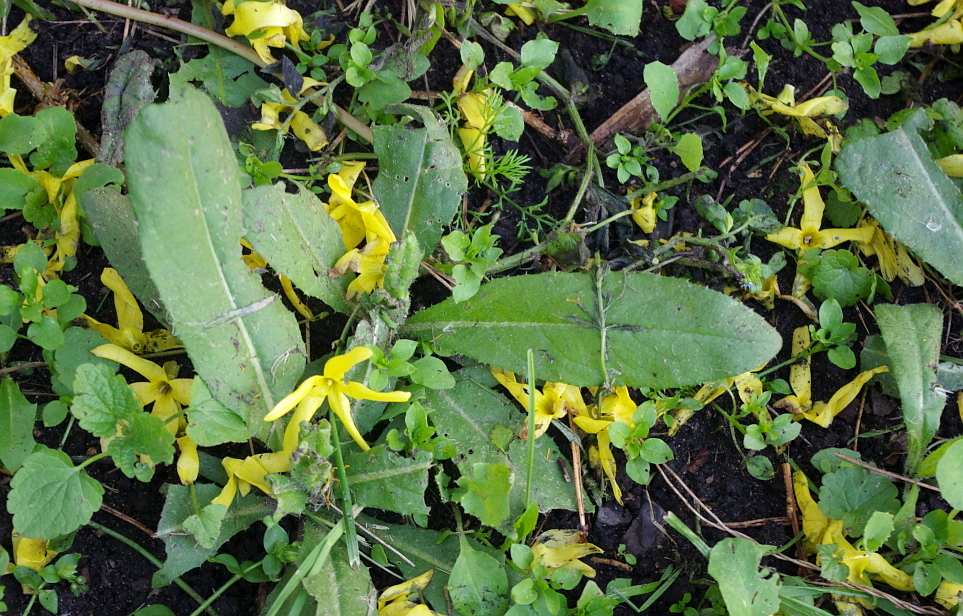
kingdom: Plantae
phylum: Tracheophyta
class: Magnoliopsida
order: Asterales
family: Asteraceae
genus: Cirsium
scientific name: Cirsium arvense
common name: Creeping thistle
